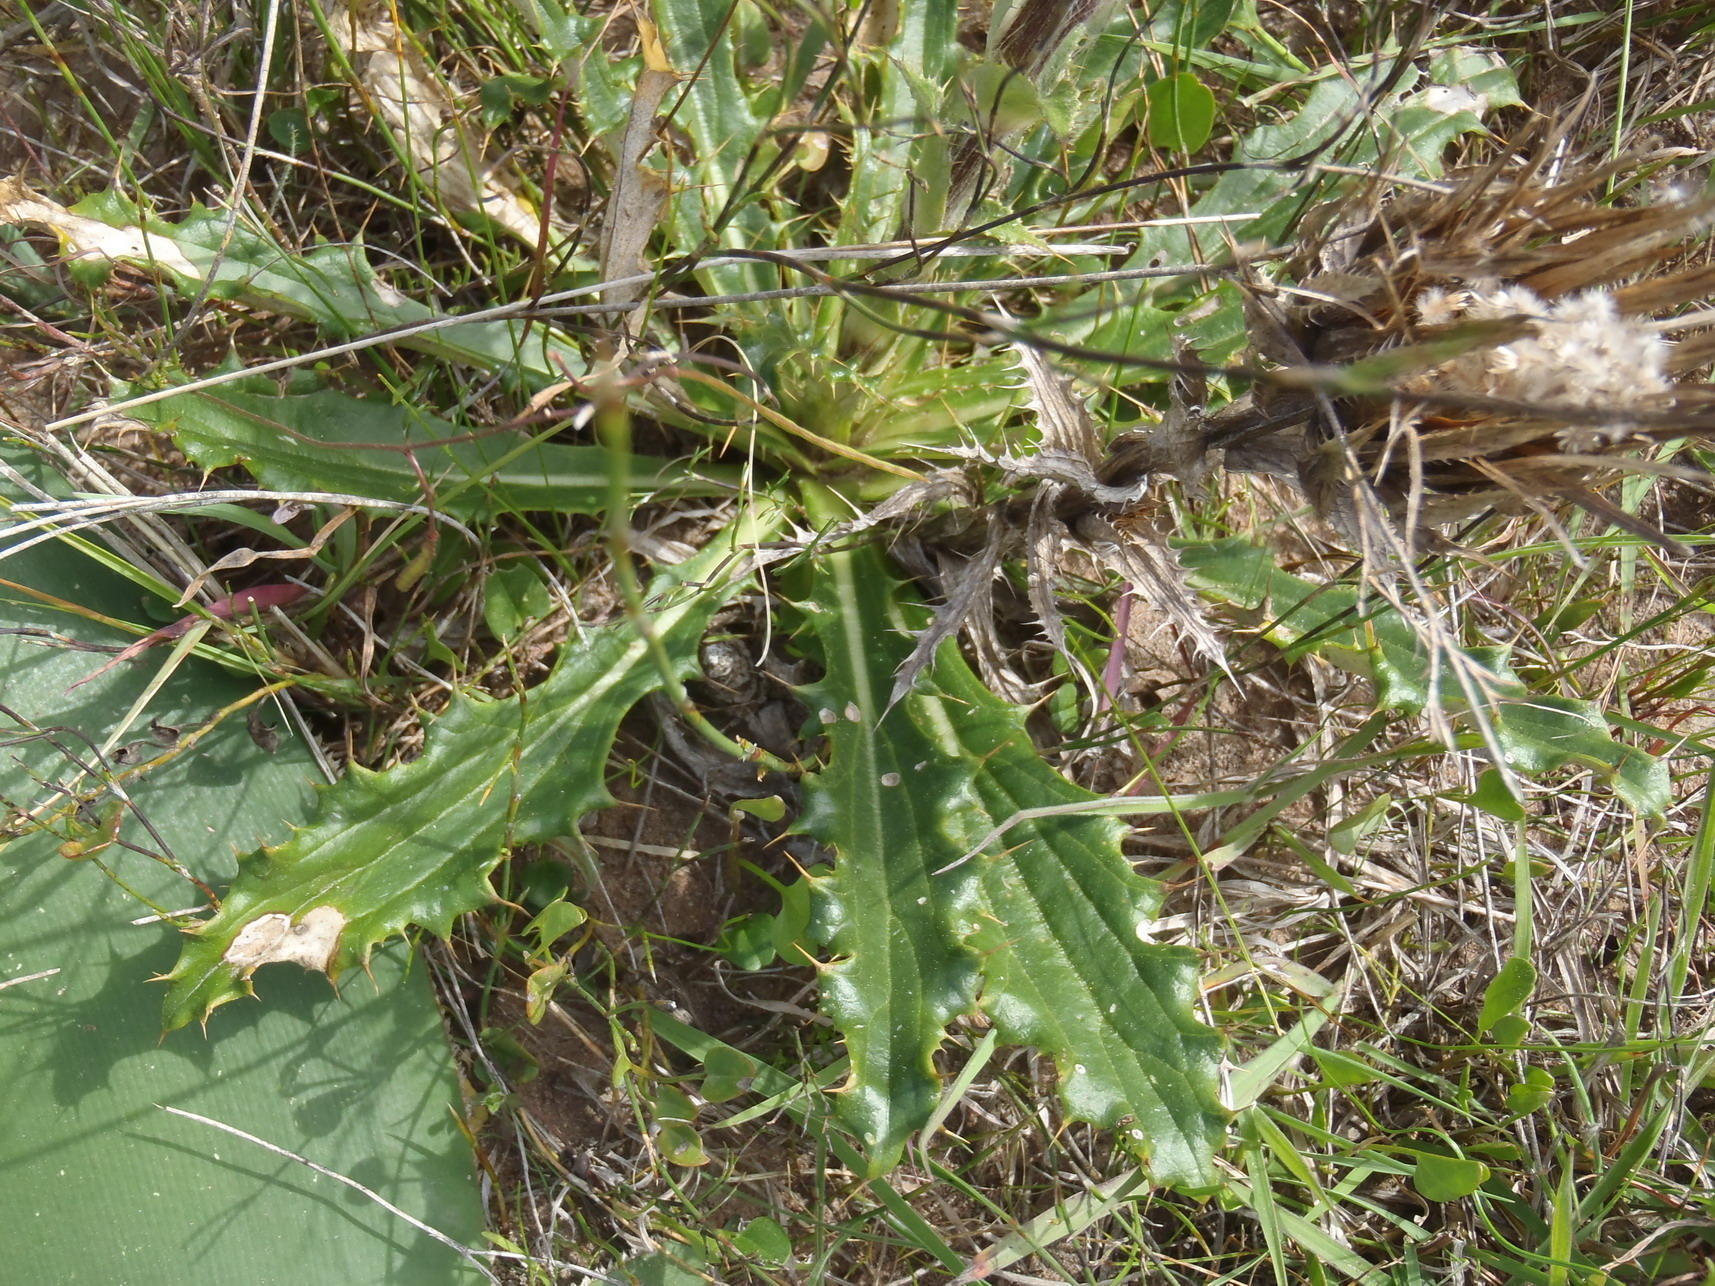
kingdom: Plantae
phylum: Tracheophyta
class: Magnoliopsida
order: Asterales
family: Asteraceae
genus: Berkheya
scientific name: Berkheya armata
